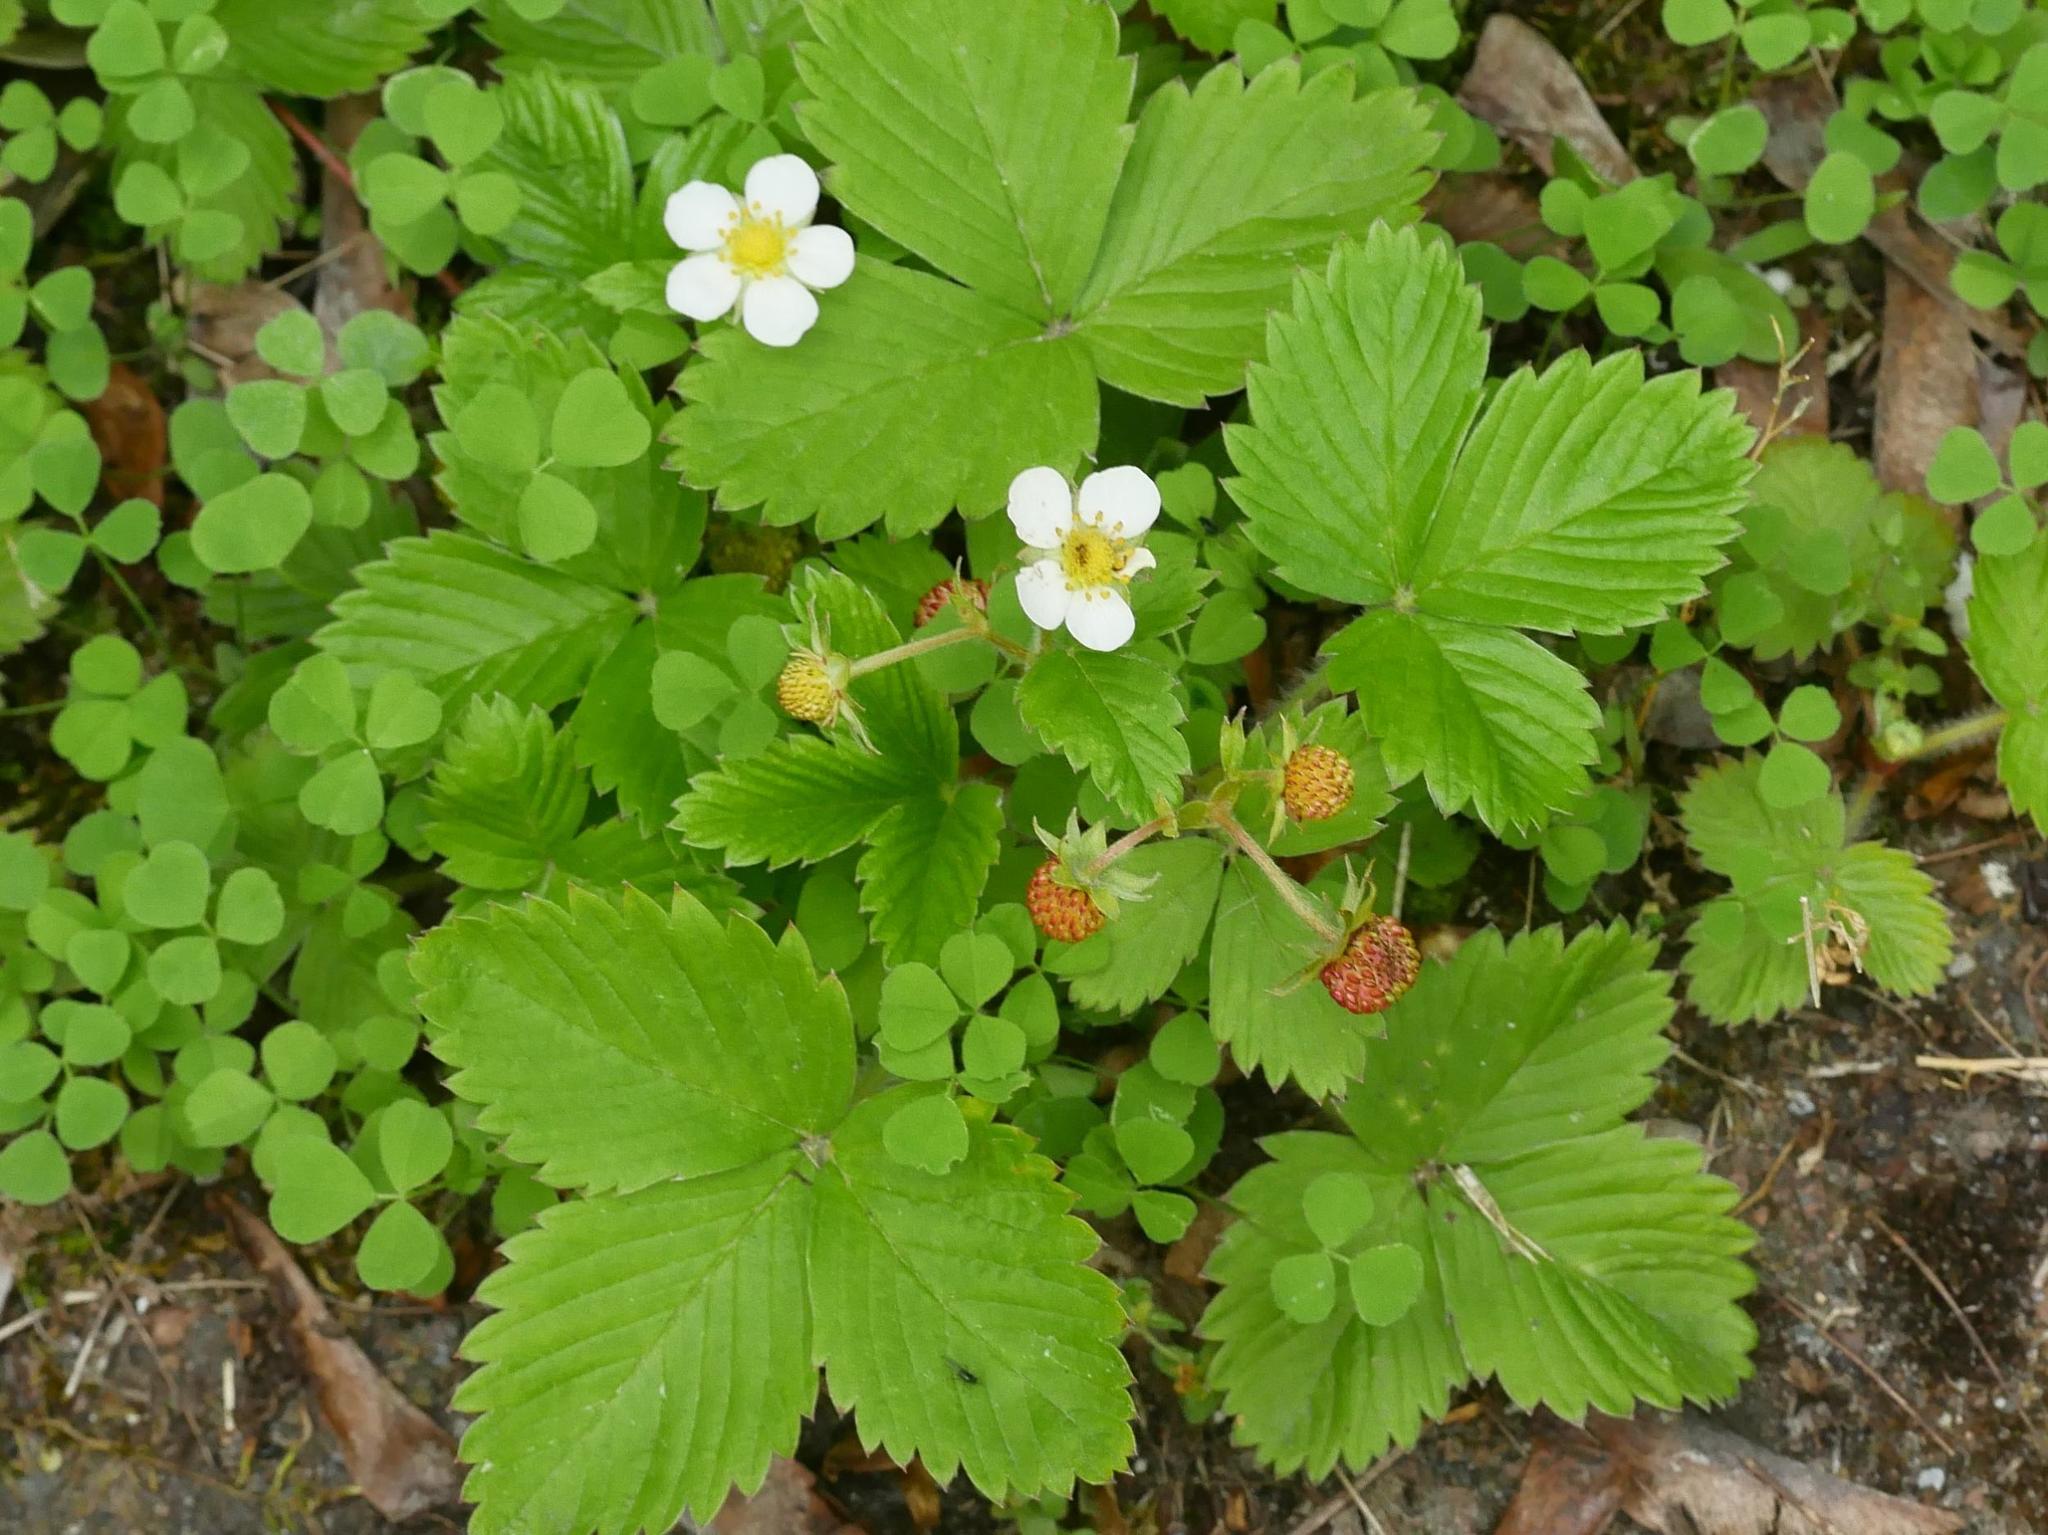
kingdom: Plantae
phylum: Tracheophyta
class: Magnoliopsida
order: Rosales
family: Rosaceae
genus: Fragaria
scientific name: Fragaria vesca
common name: Wild strawberry
